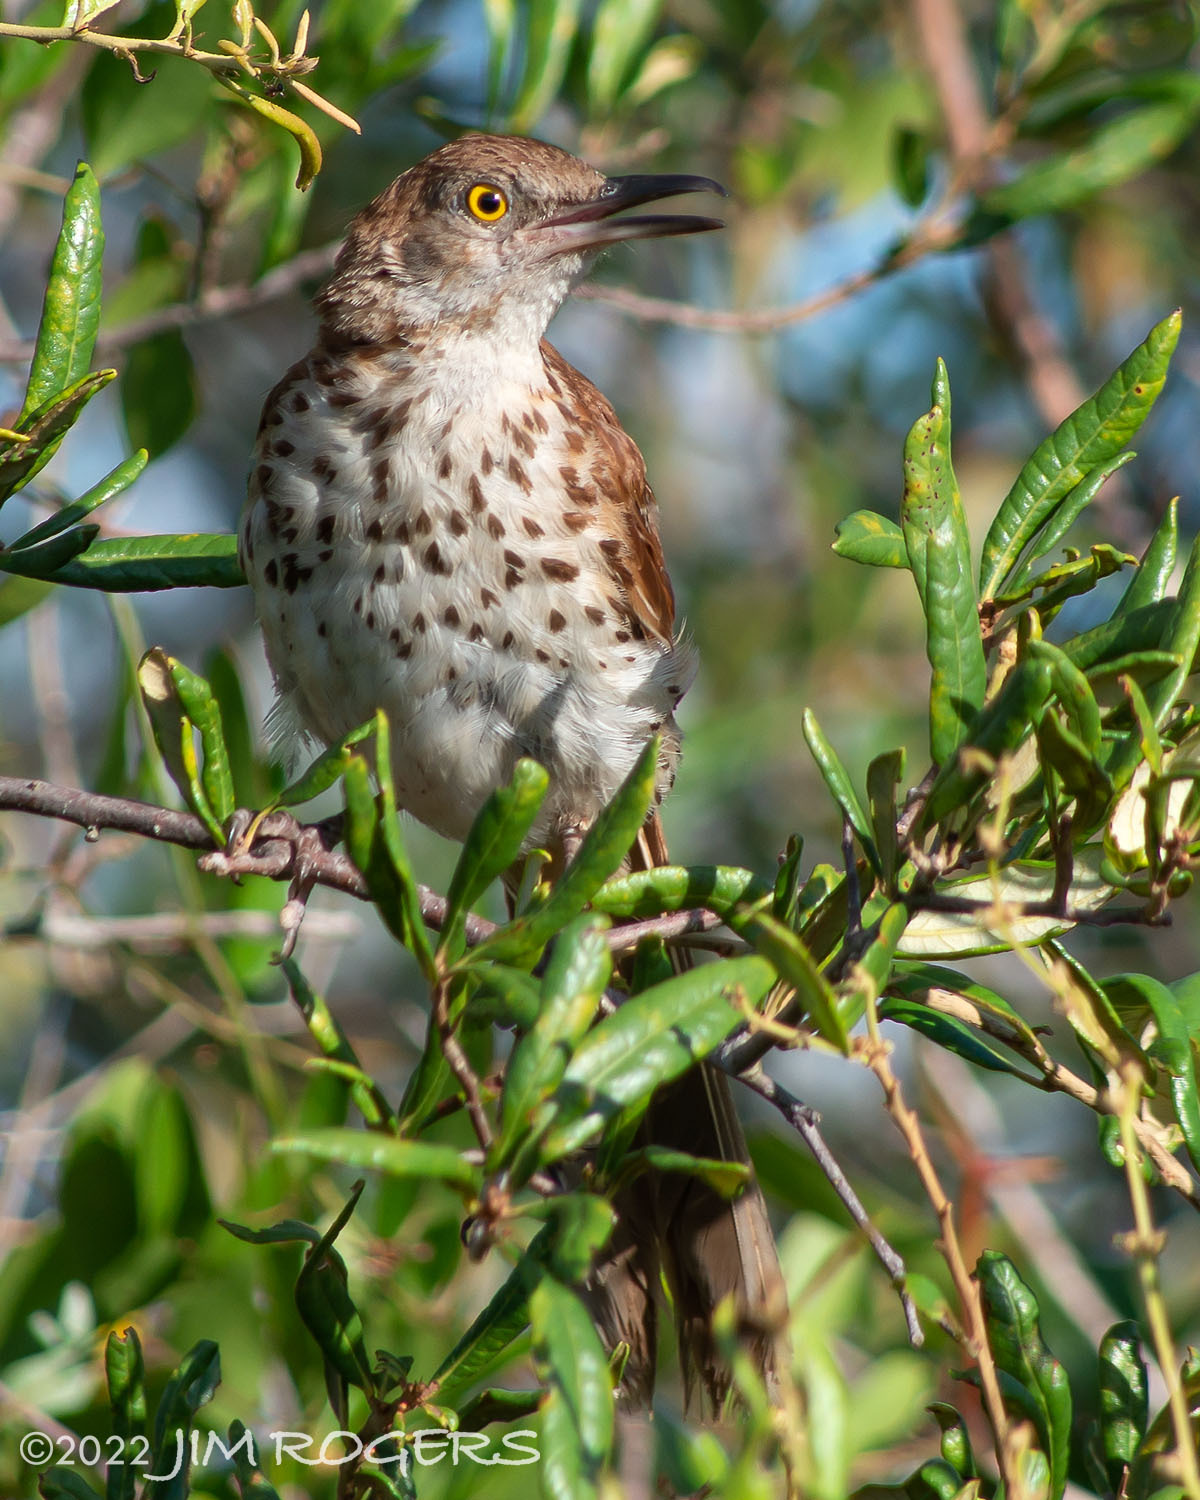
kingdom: Animalia
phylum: Chordata
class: Aves
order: Passeriformes
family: Mimidae
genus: Toxostoma
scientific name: Toxostoma rufum
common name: Brown thrasher
